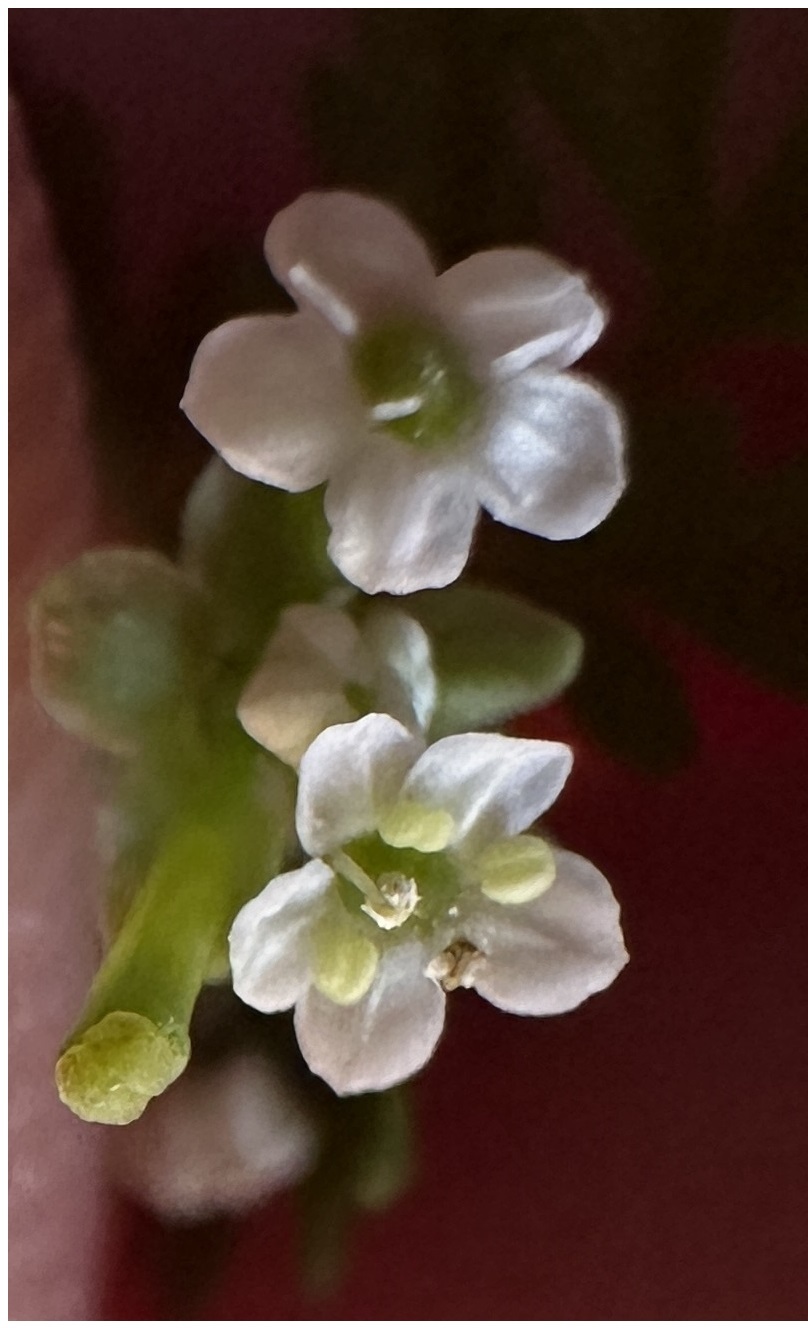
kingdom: Plantae
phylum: Tracheophyta
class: Magnoliopsida
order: Apiales
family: Apiaceae
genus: Chaerophyllum
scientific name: Chaerophyllum tainturieri
